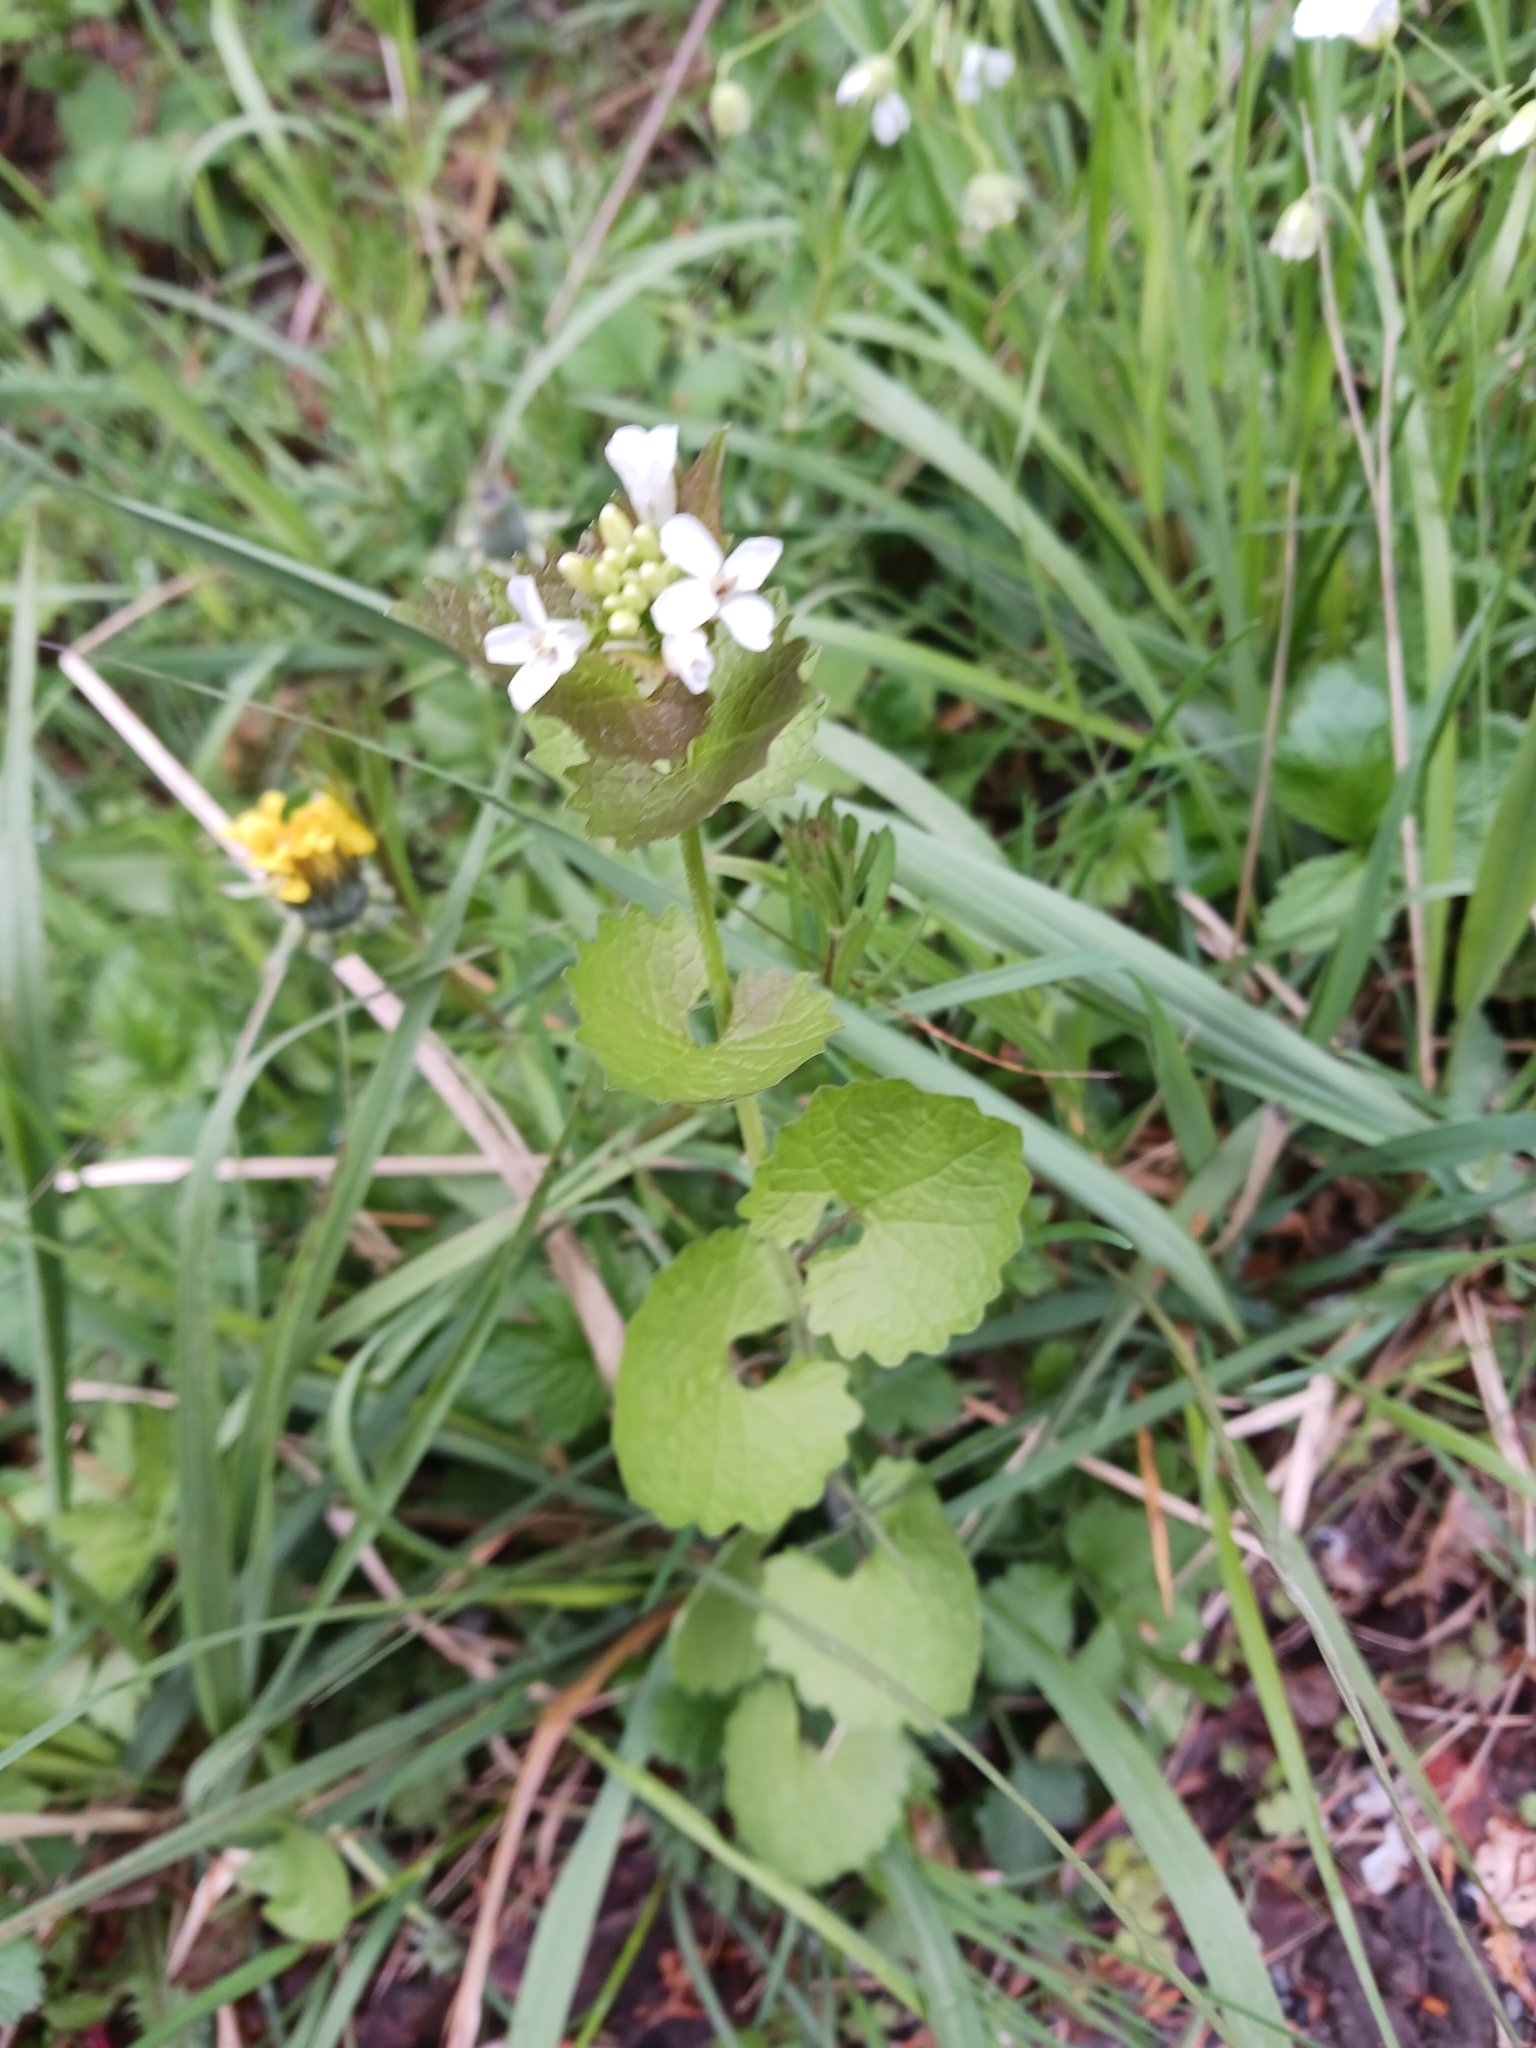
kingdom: Plantae
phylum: Tracheophyta
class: Magnoliopsida
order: Brassicales
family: Brassicaceae
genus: Alliaria
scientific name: Alliaria petiolata
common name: Garlic mustard
